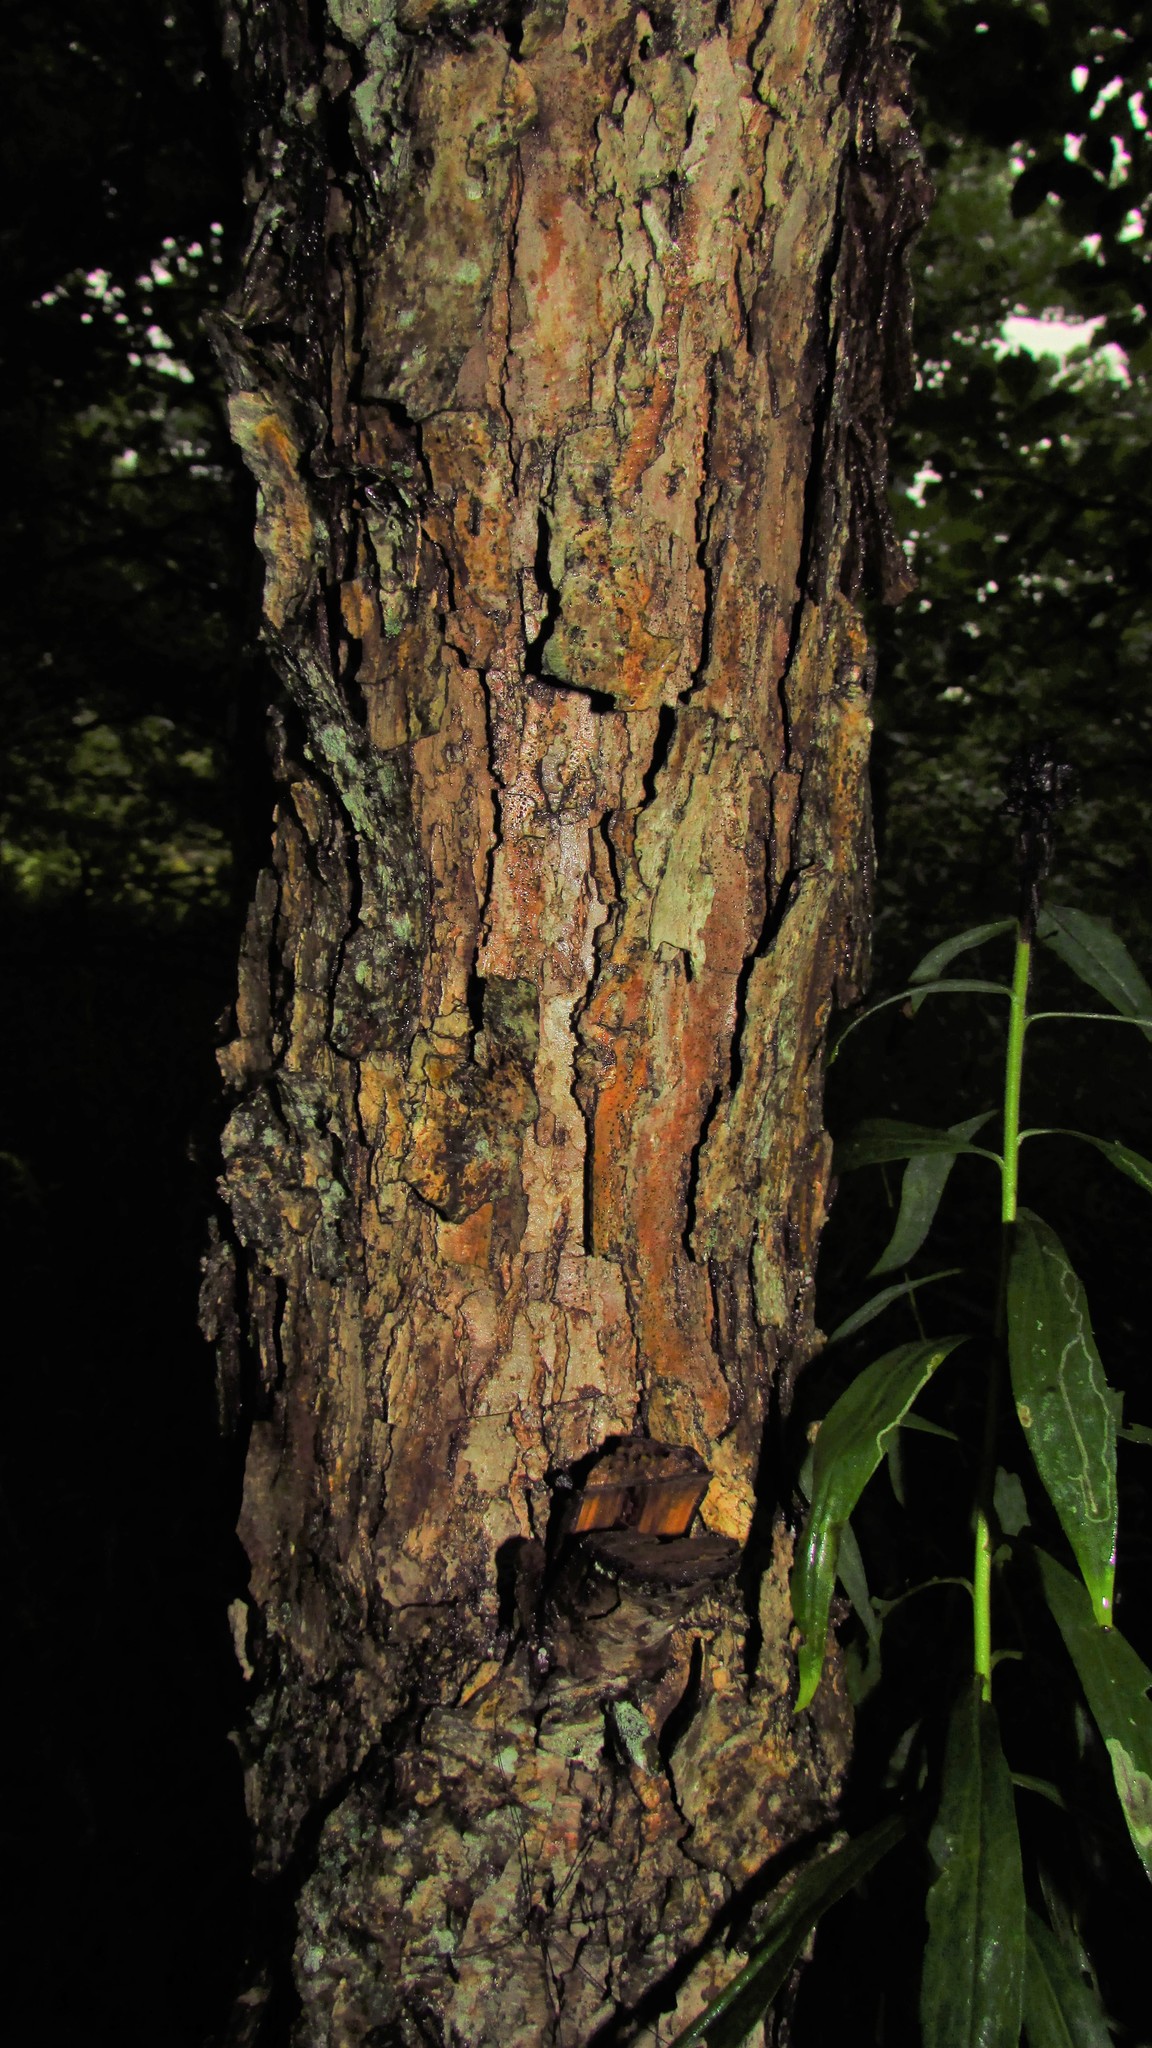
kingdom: Plantae
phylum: Tracheophyta
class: Magnoliopsida
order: Fagales
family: Fagaceae
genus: Quercus
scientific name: Quercus bicolor
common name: Swamp white oak
